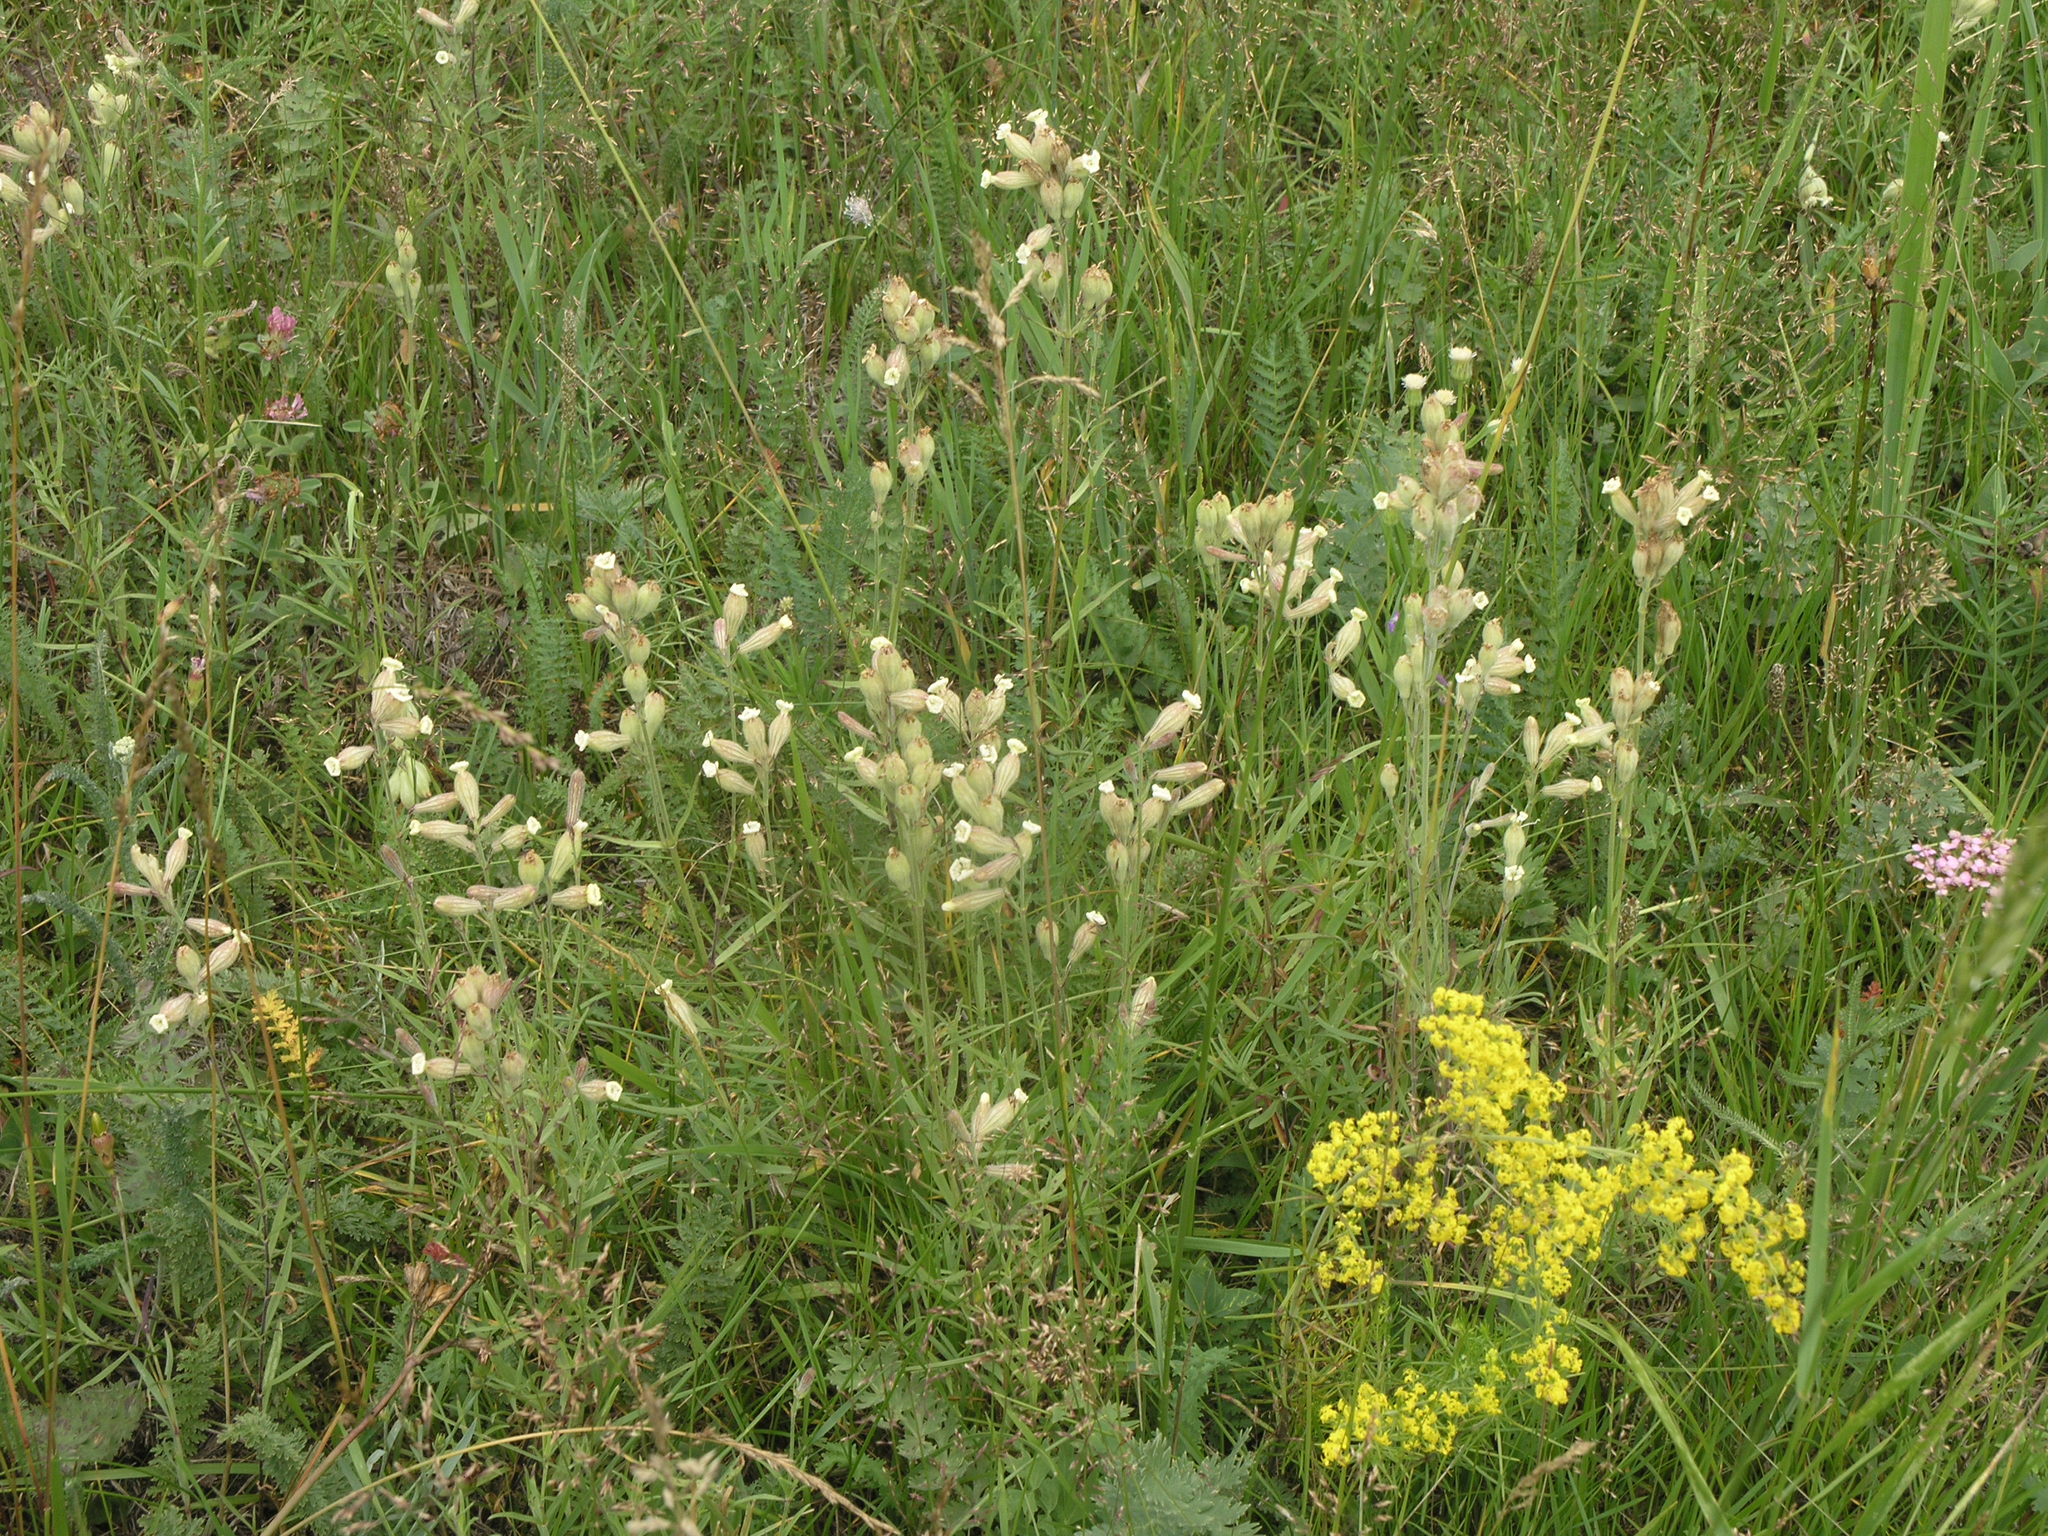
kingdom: Plantae
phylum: Tracheophyta
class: Magnoliopsida
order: Caryophyllales
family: Caryophyllaceae
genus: Silene
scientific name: Silene repens
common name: Pink campion
